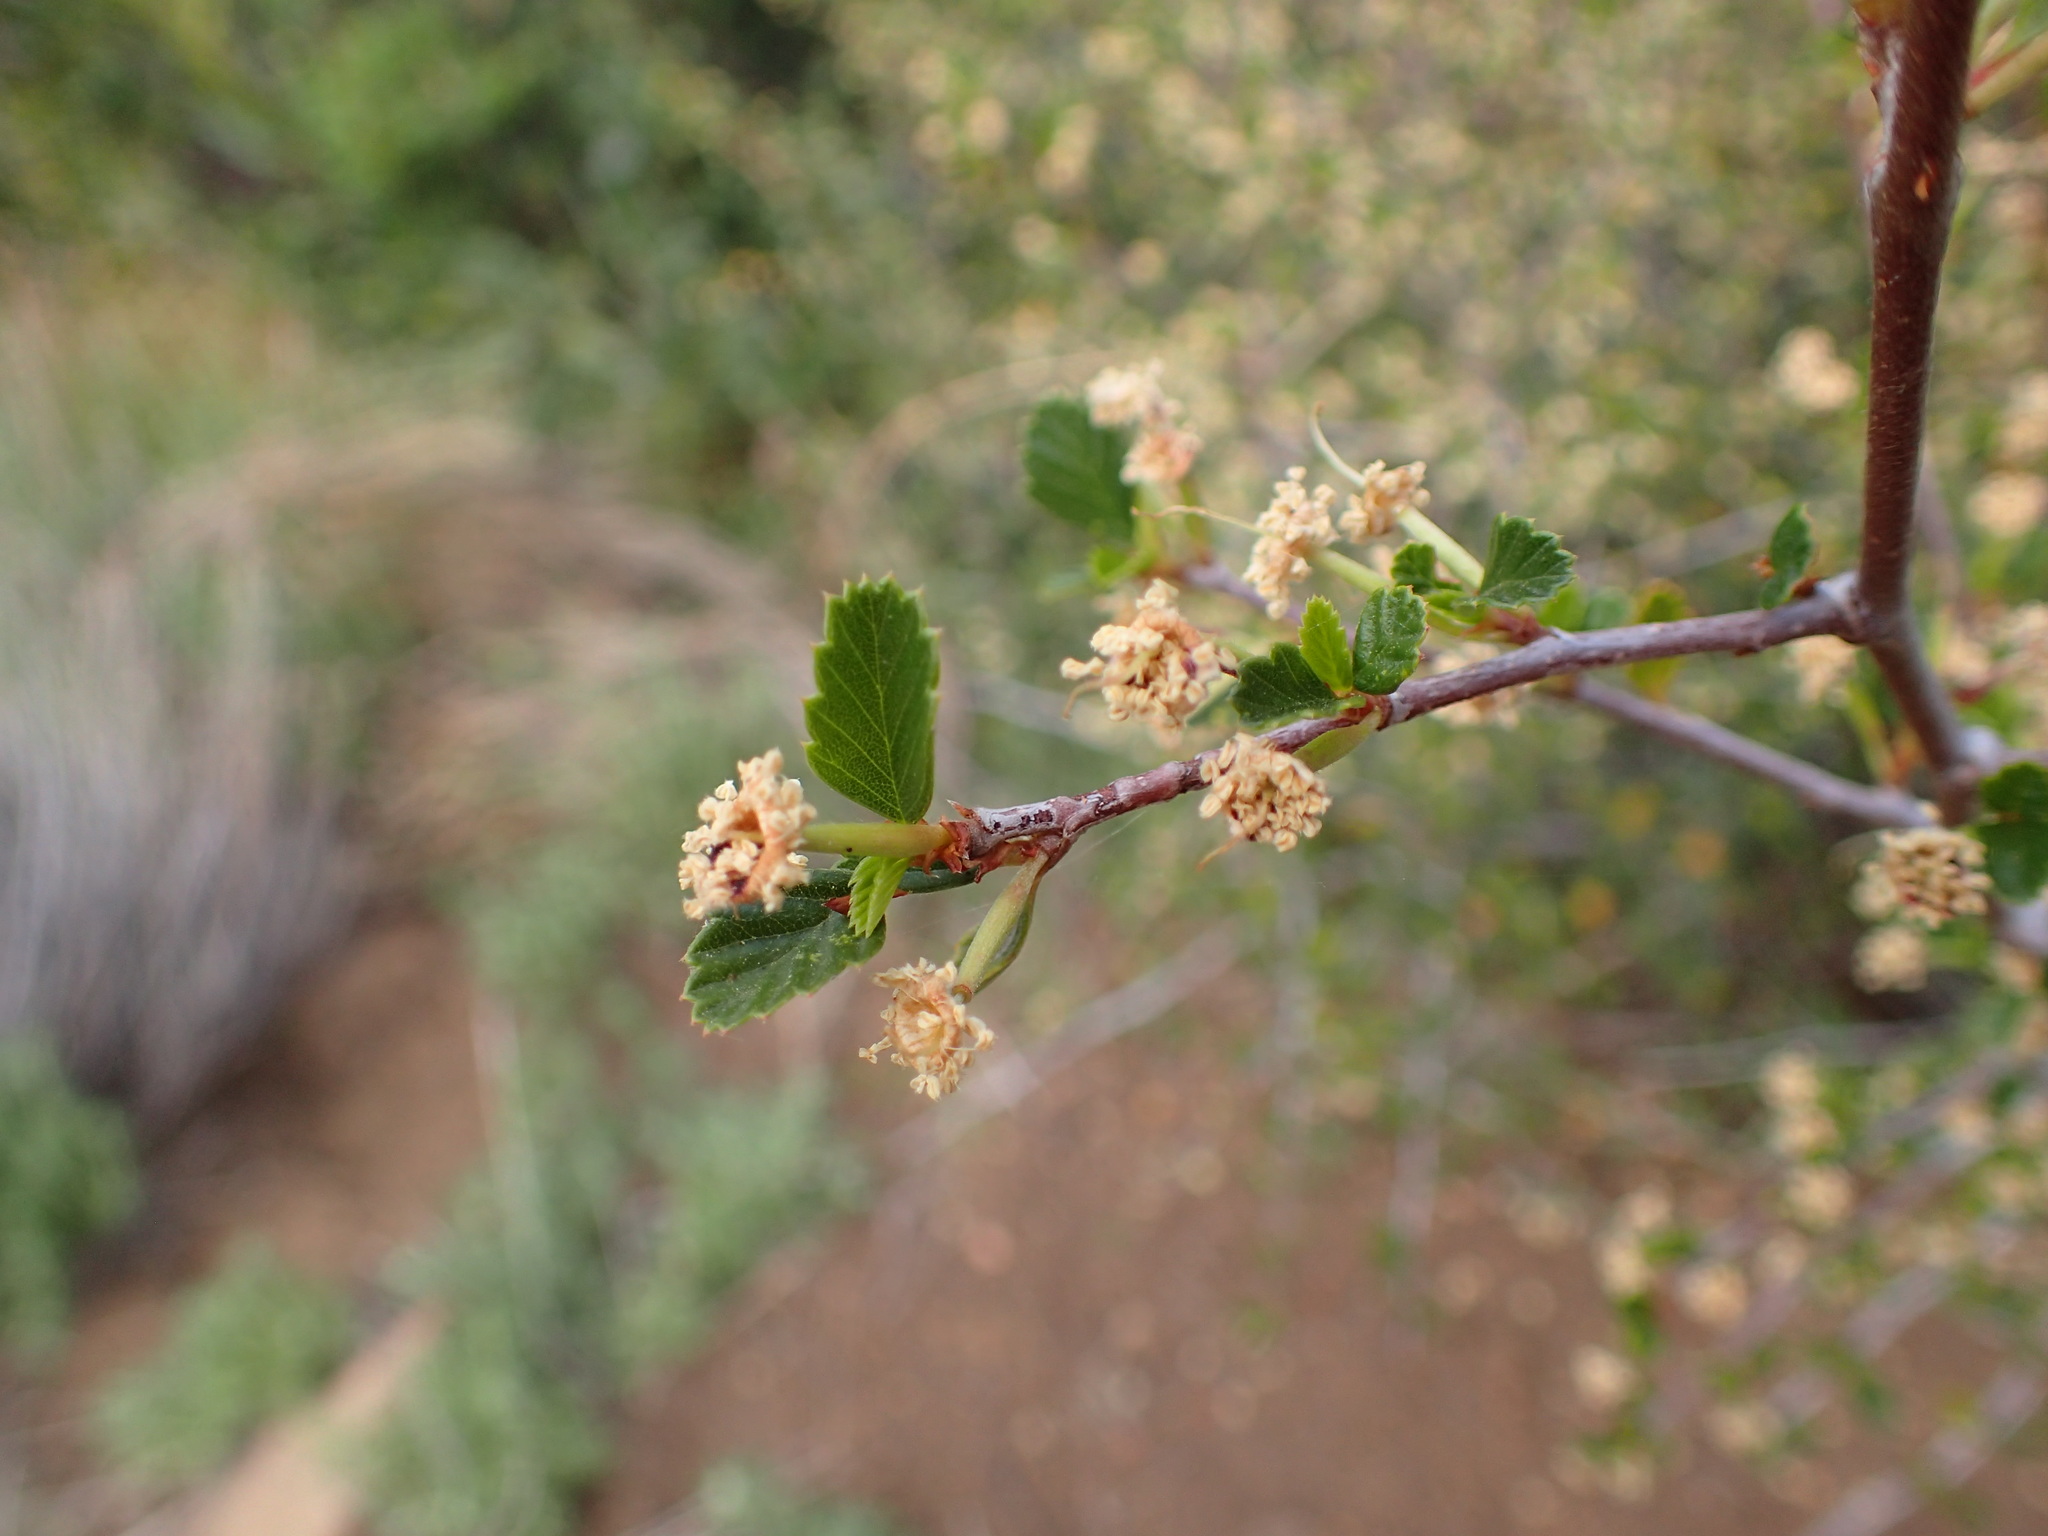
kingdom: Plantae
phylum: Tracheophyta
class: Magnoliopsida
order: Rosales
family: Rosaceae
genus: Cercocarpus
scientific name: Cercocarpus betuloides
